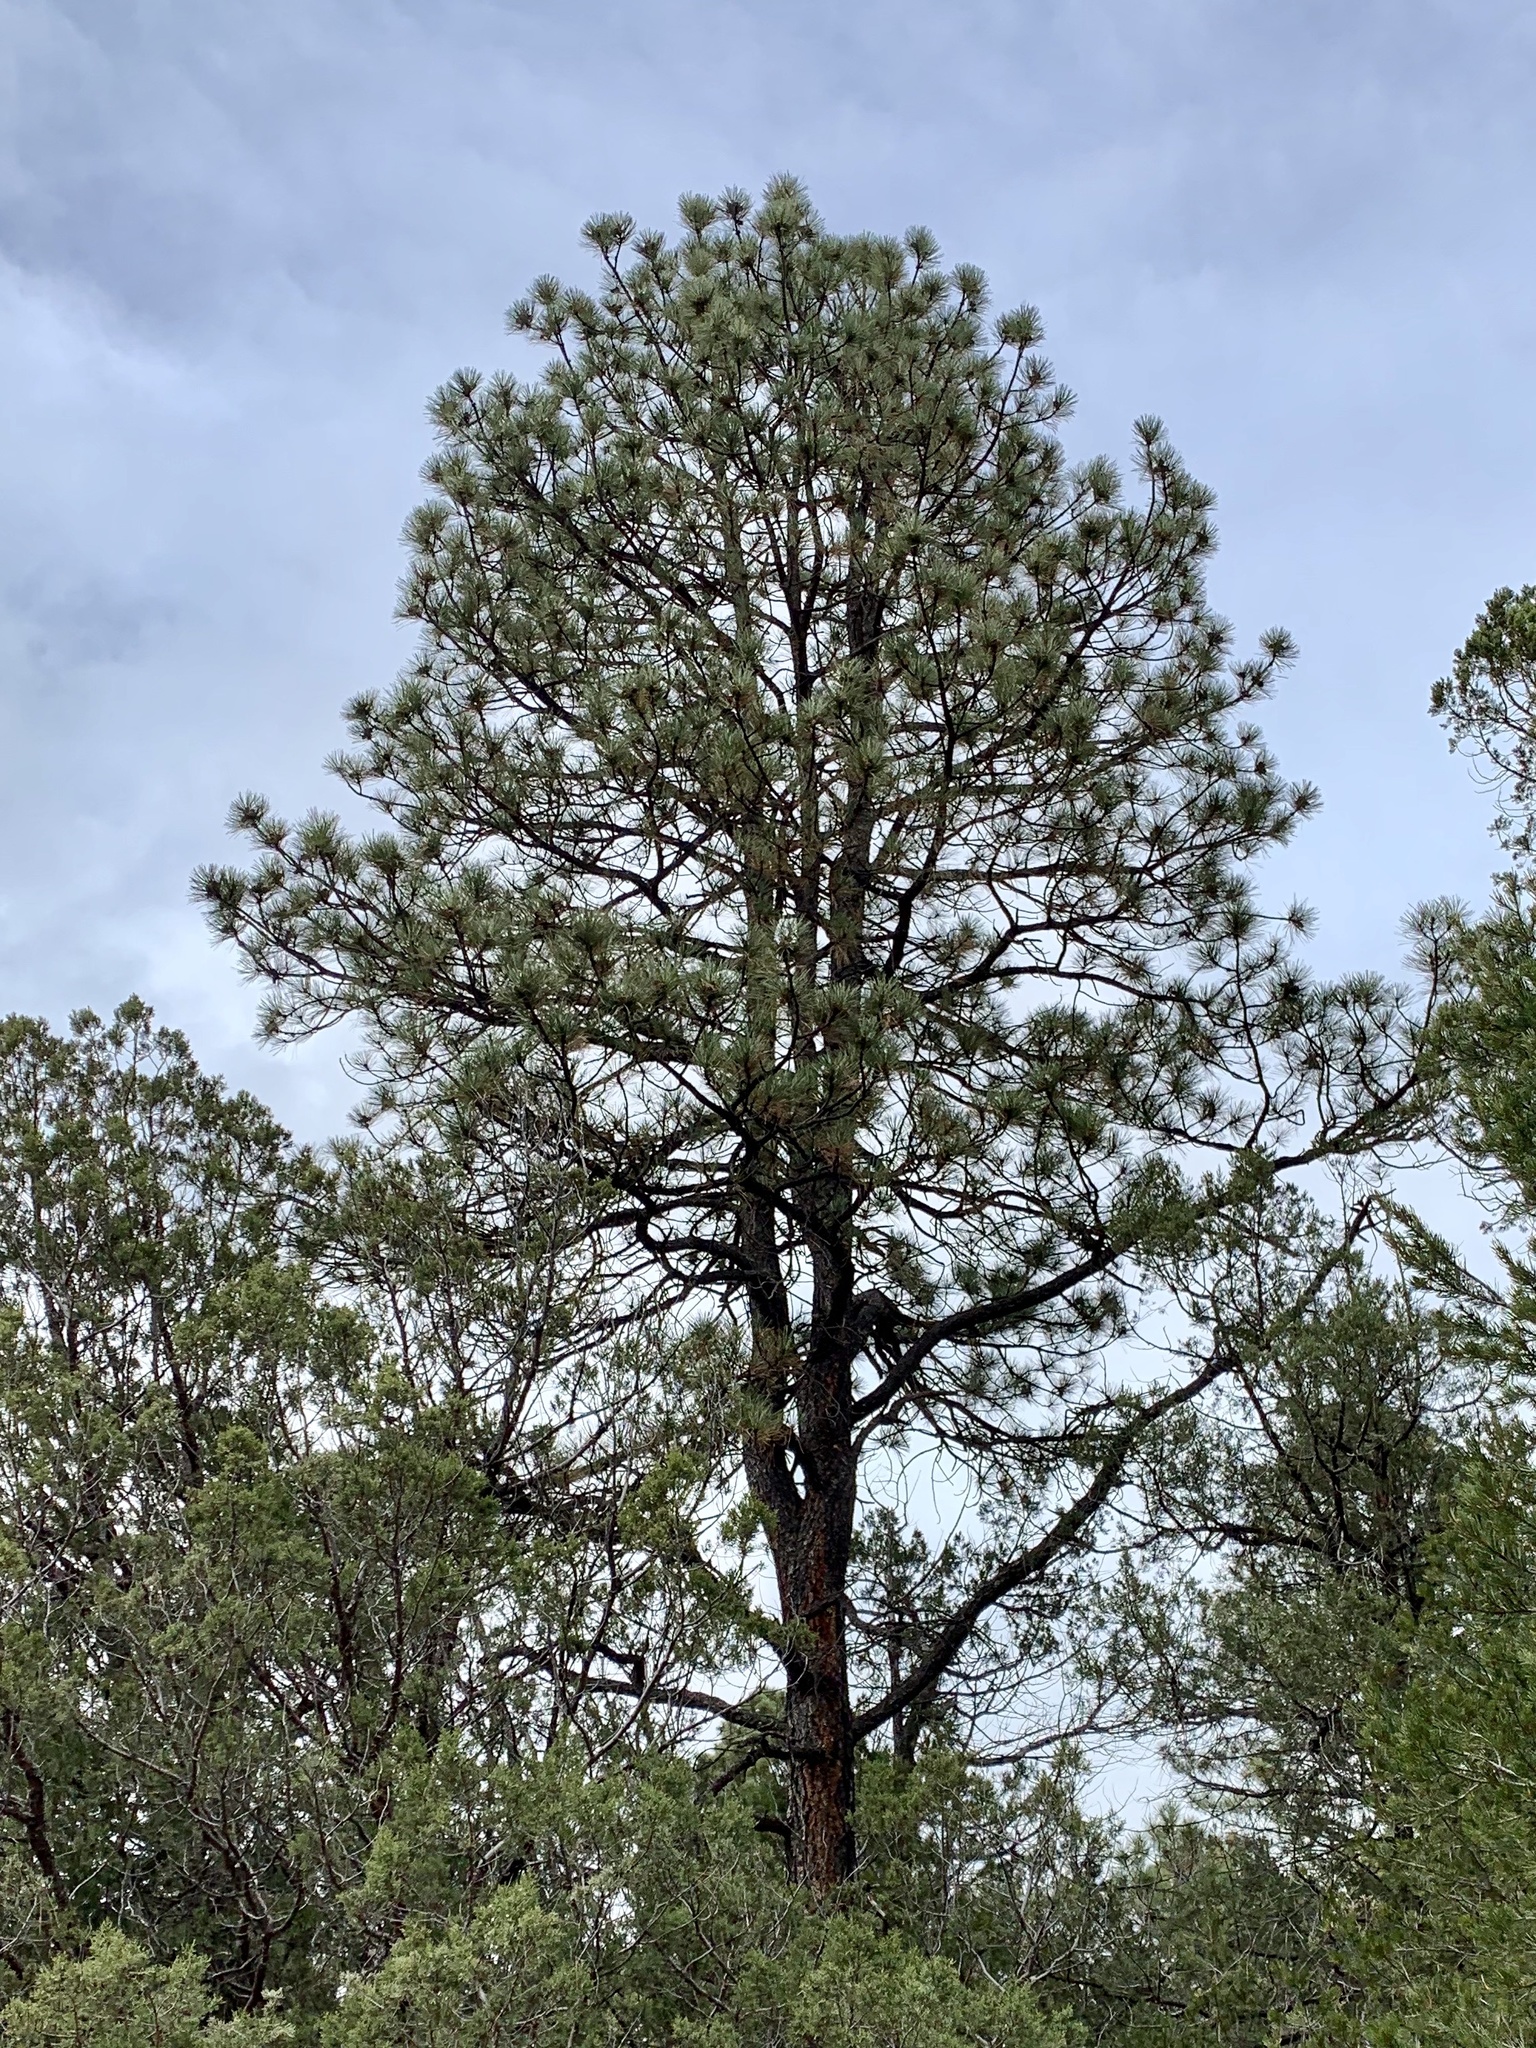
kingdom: Plantae
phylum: Tracheophyta
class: Pinopsida
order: Pinales
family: Pinaceae
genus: Pinus
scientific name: Pinus ponderosa
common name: Western yellow-pine
